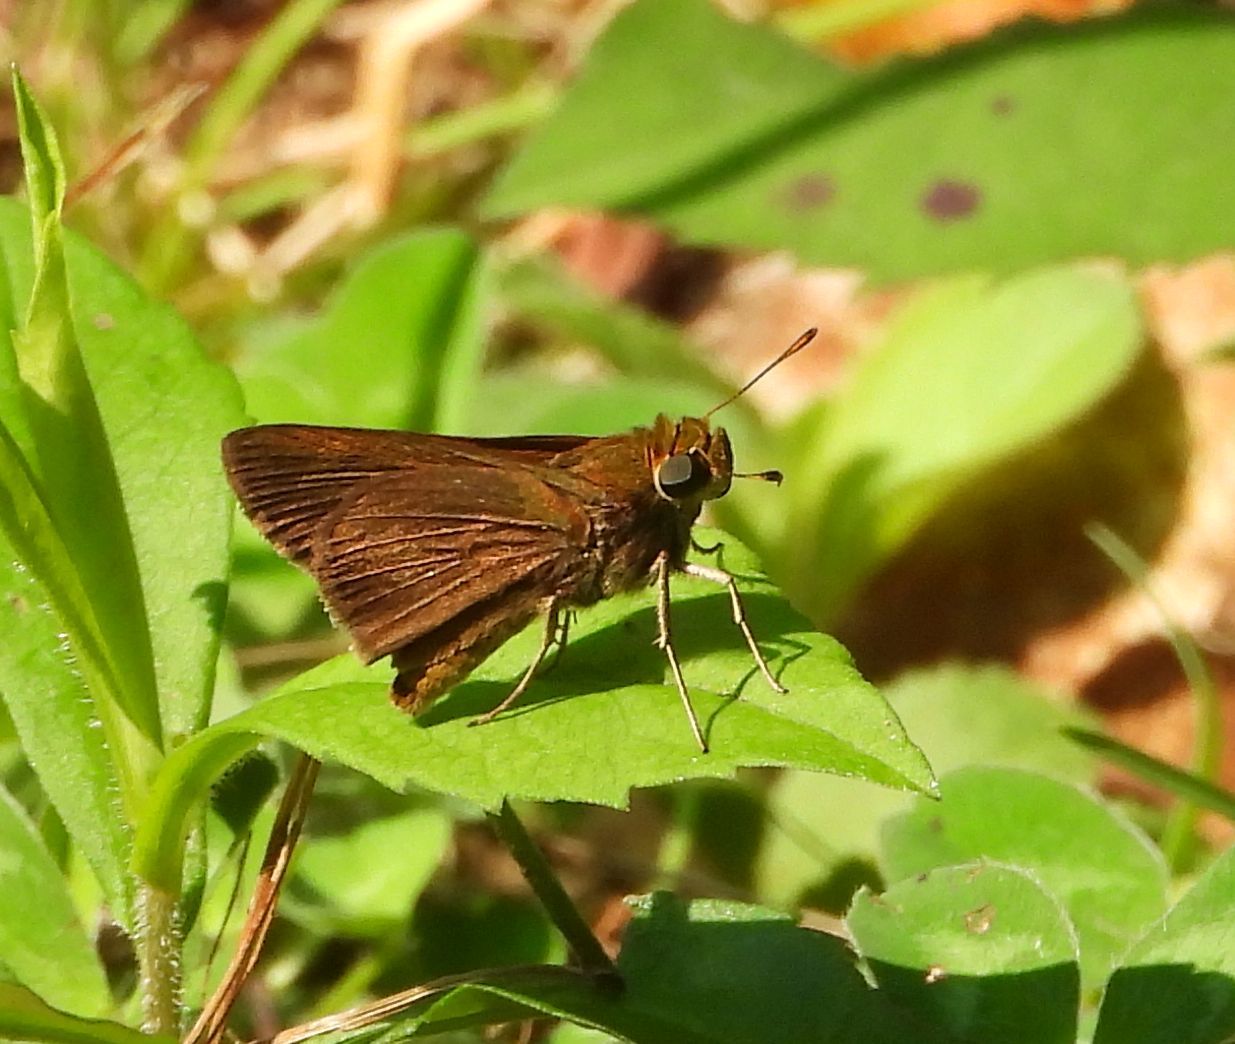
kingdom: Animalia
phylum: Arthropoda
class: Insecta
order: Lepidoptera
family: Hesperiidae
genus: Euphyes
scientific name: Euphyes vestris
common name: Dun skipper
